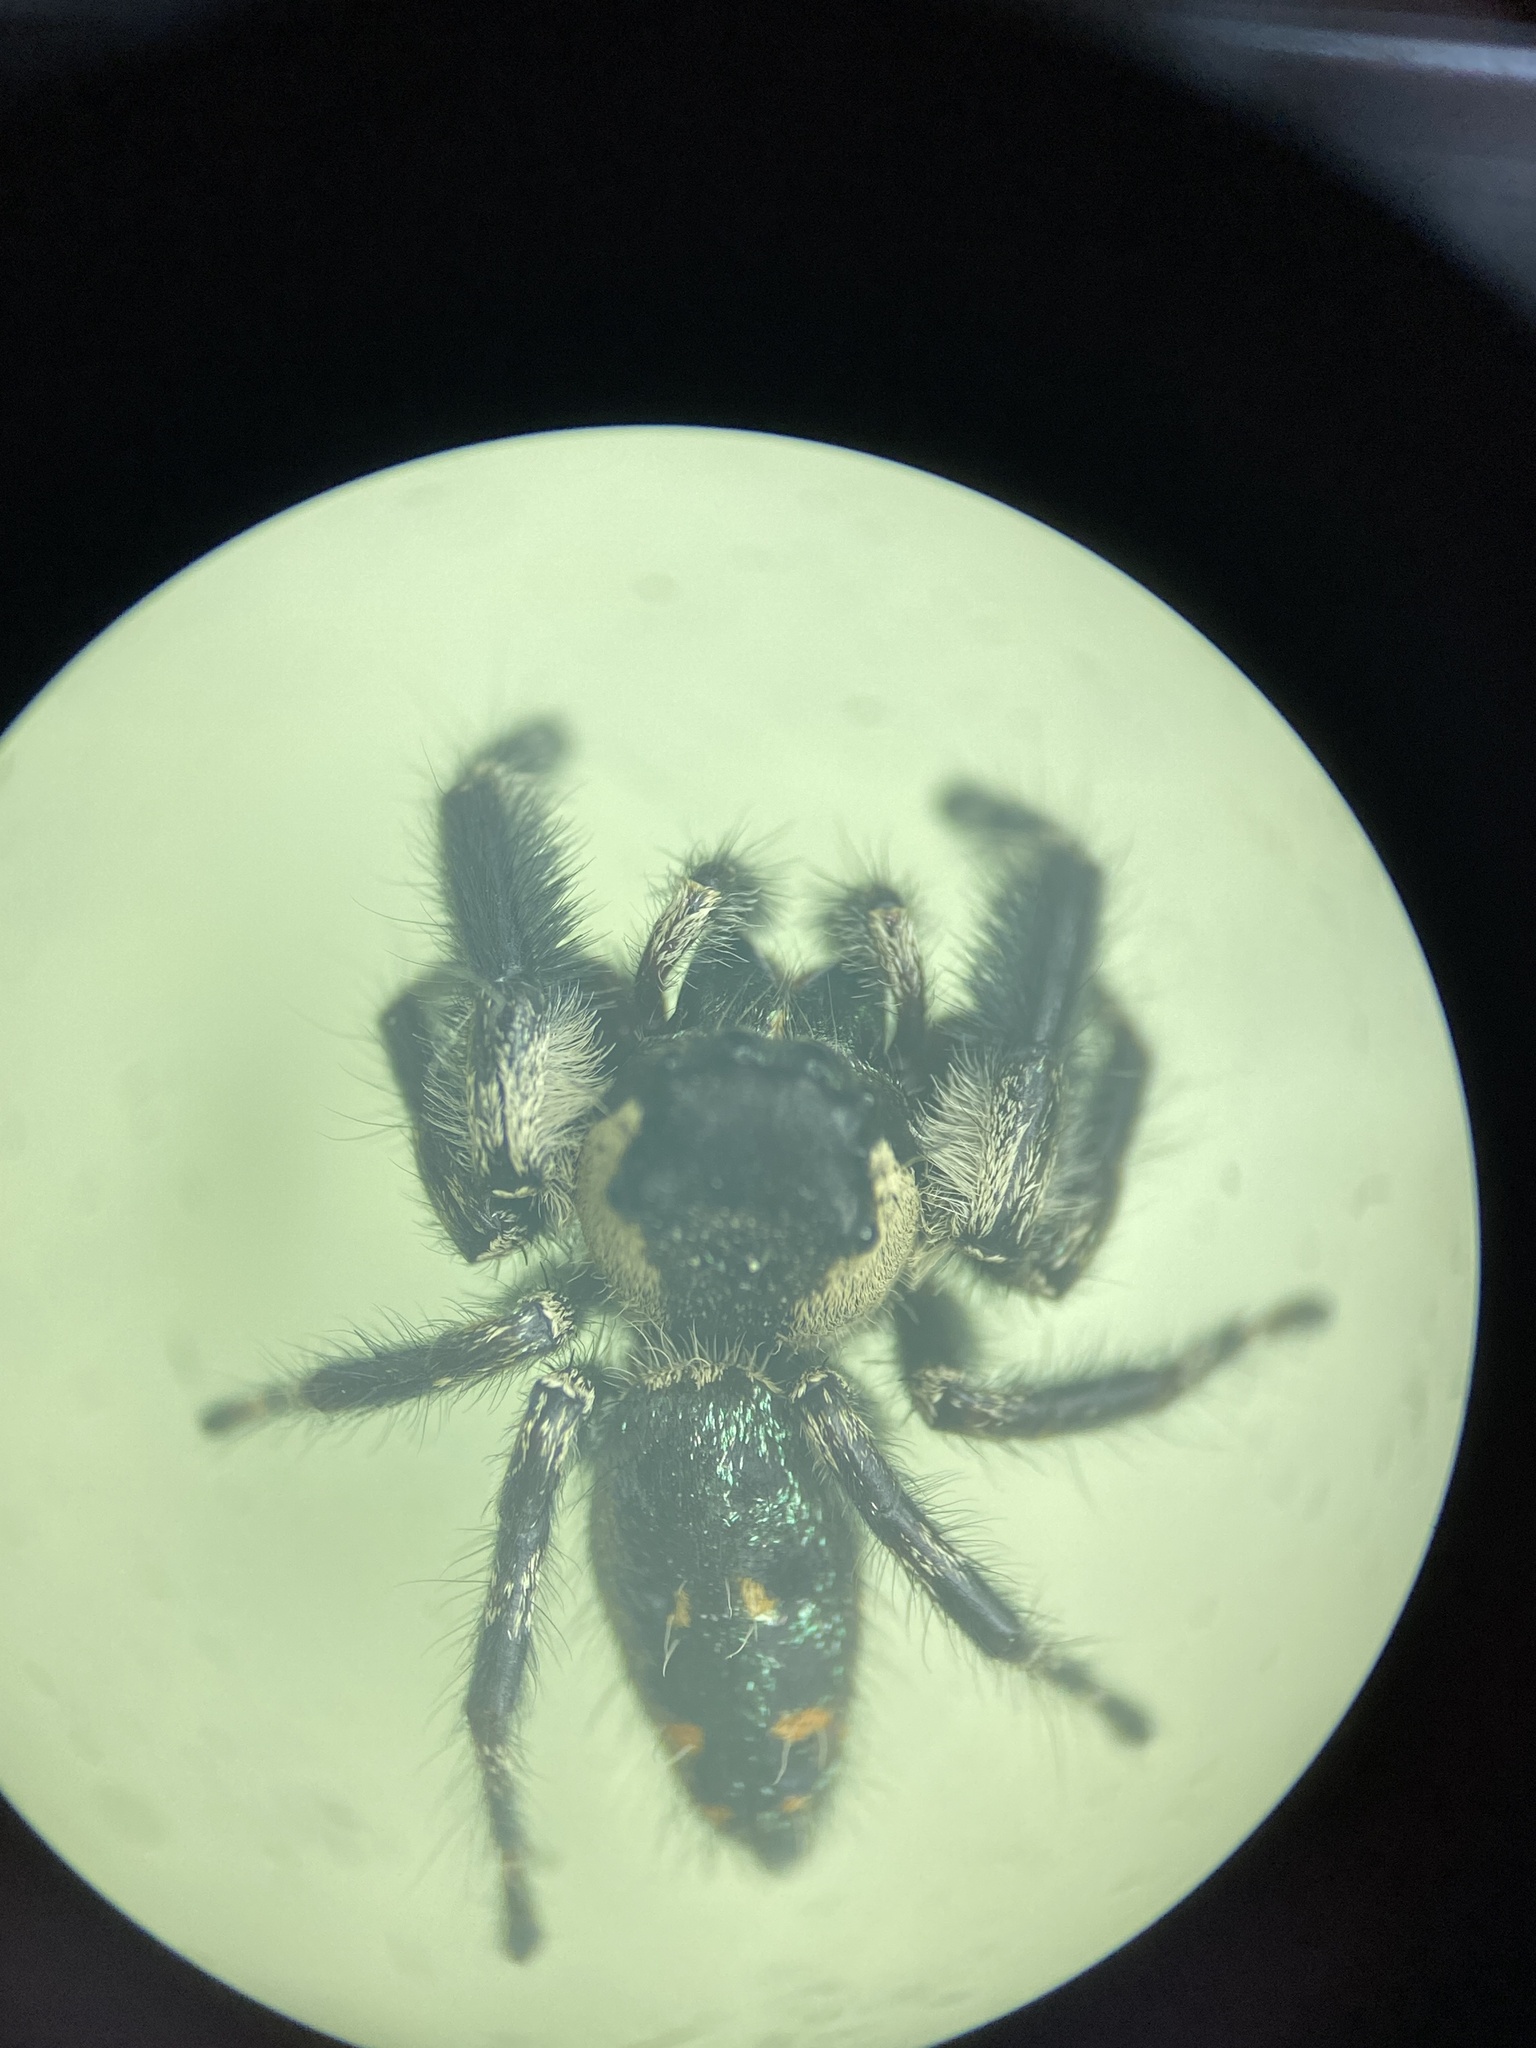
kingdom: Animalia
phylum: Arthropoda
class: Arachnida
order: Araneae
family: Salticidae
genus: Phidippus
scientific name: Phidippus otiosus
